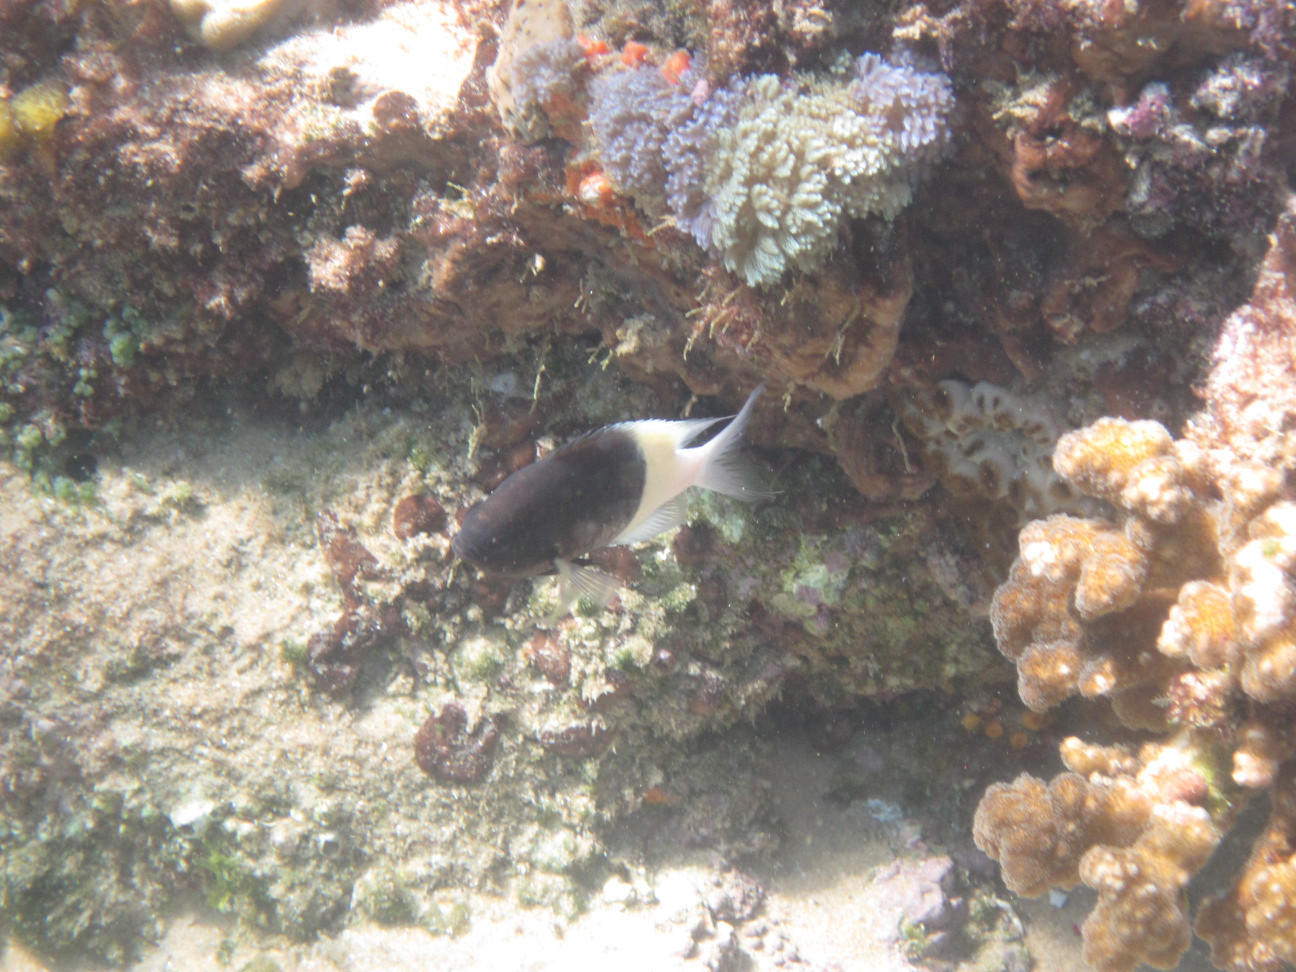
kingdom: Animalia
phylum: Chordata
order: Perciformes
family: Pomacentridae
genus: Chromis
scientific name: Chromis fieldi
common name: Chocolatedip chromis
